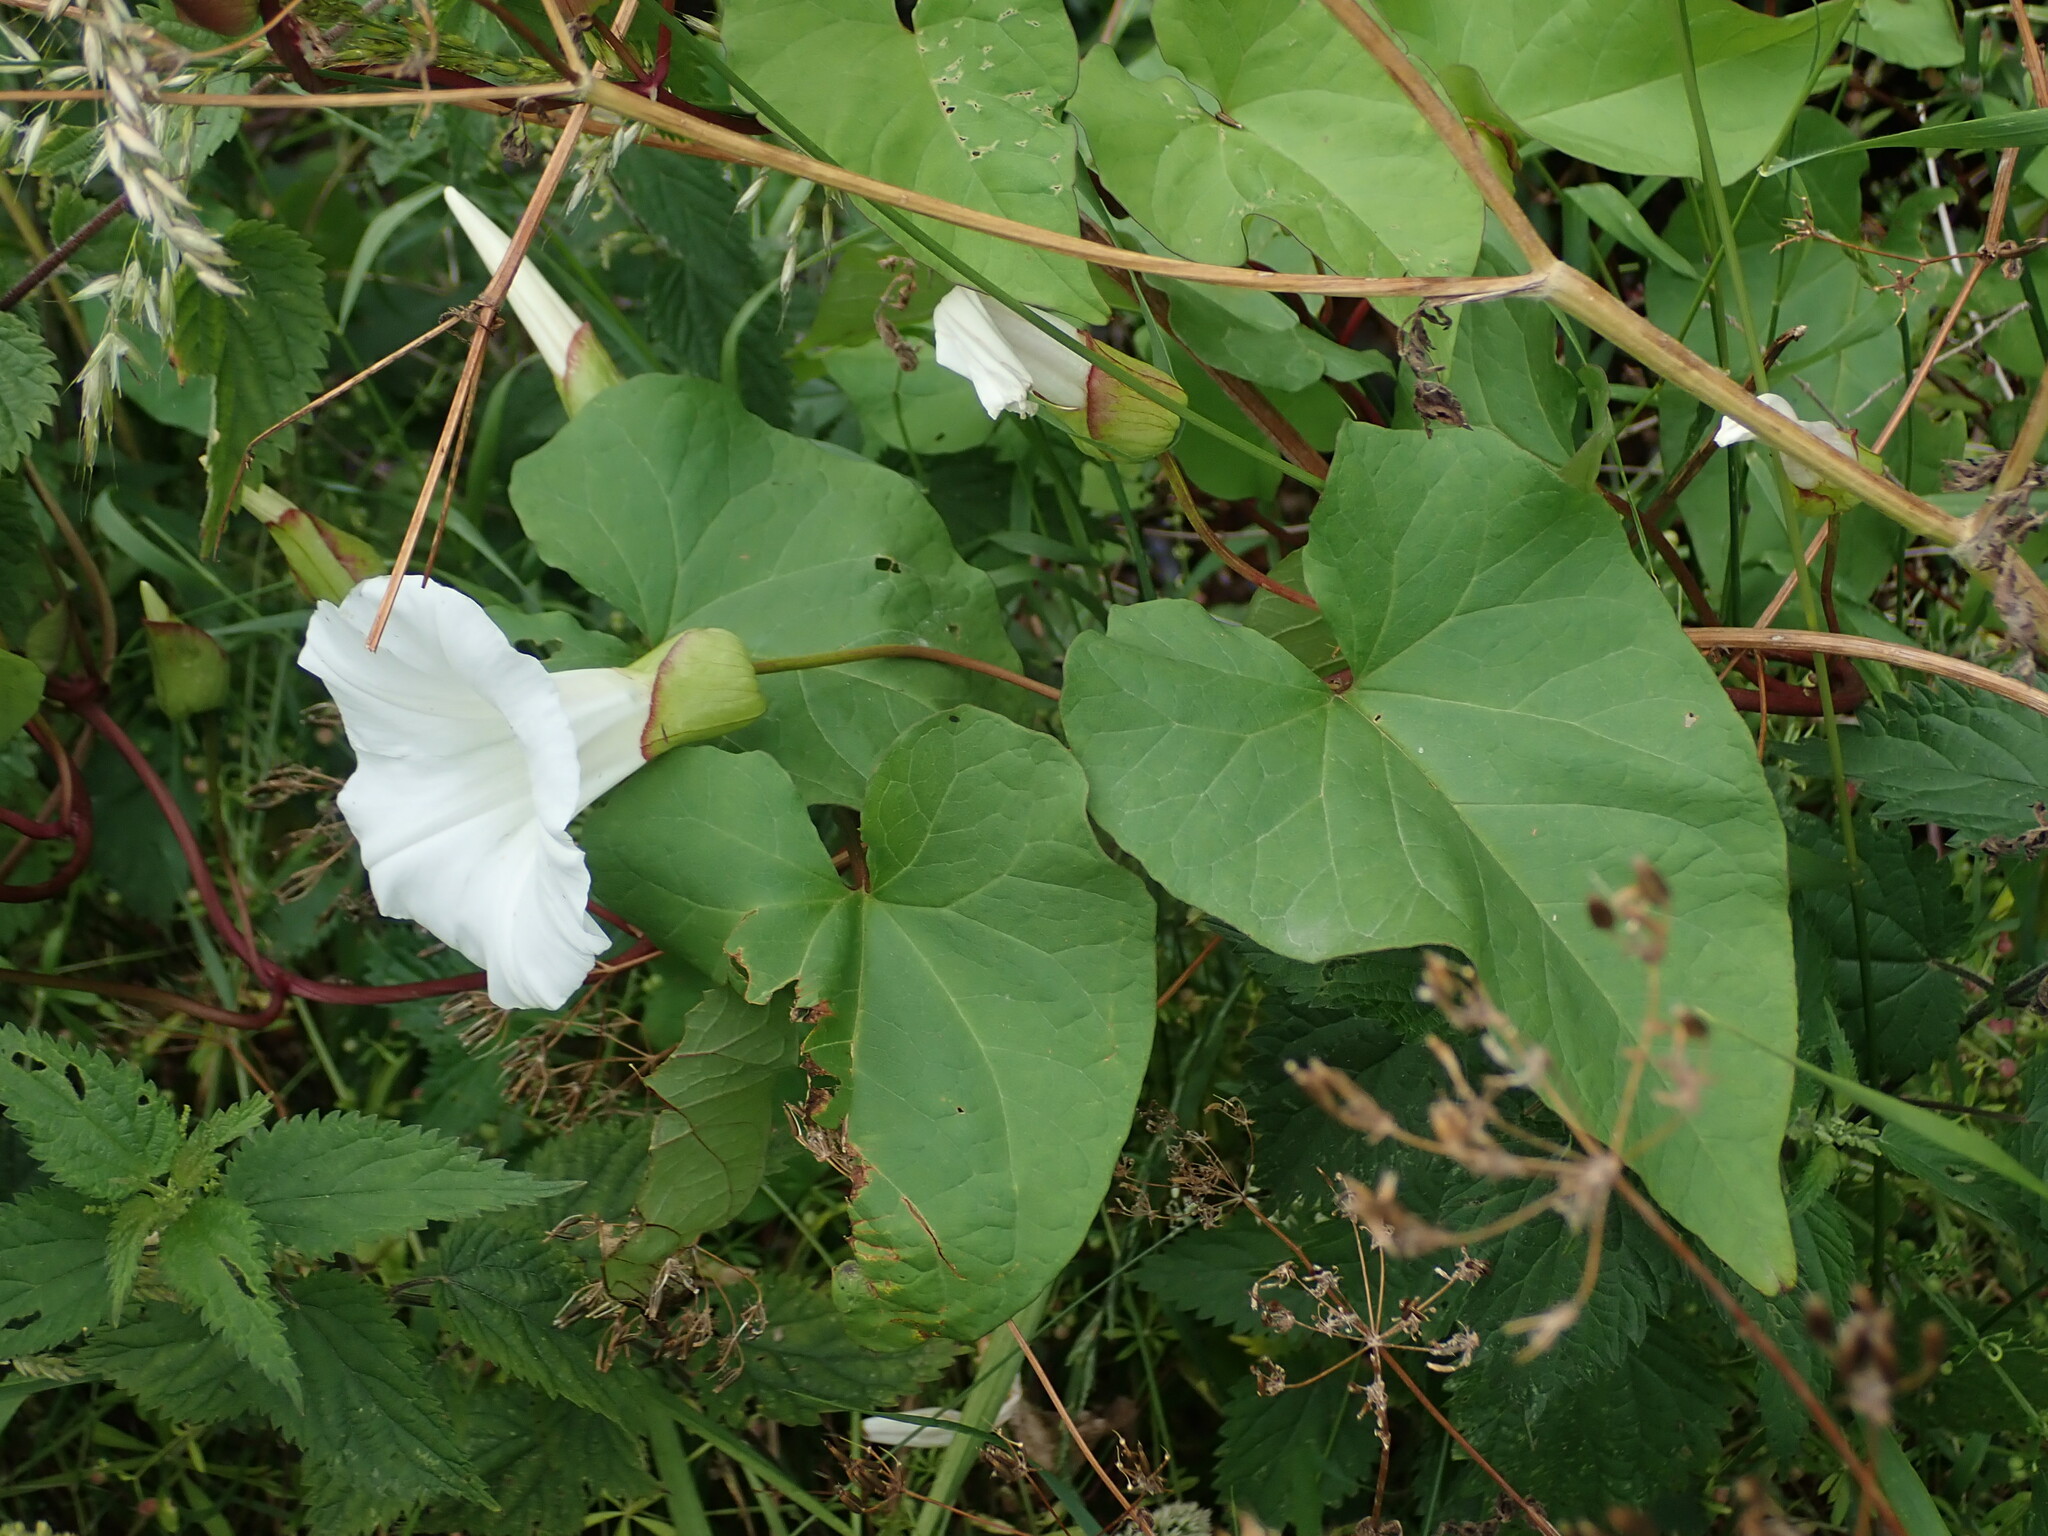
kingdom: Plantae
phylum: Tracheophyta
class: Magnoliopsida
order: Solanales
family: Convolvulaceae
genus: Calystegia
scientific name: Calystegia silvatica
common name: Large bindweed
